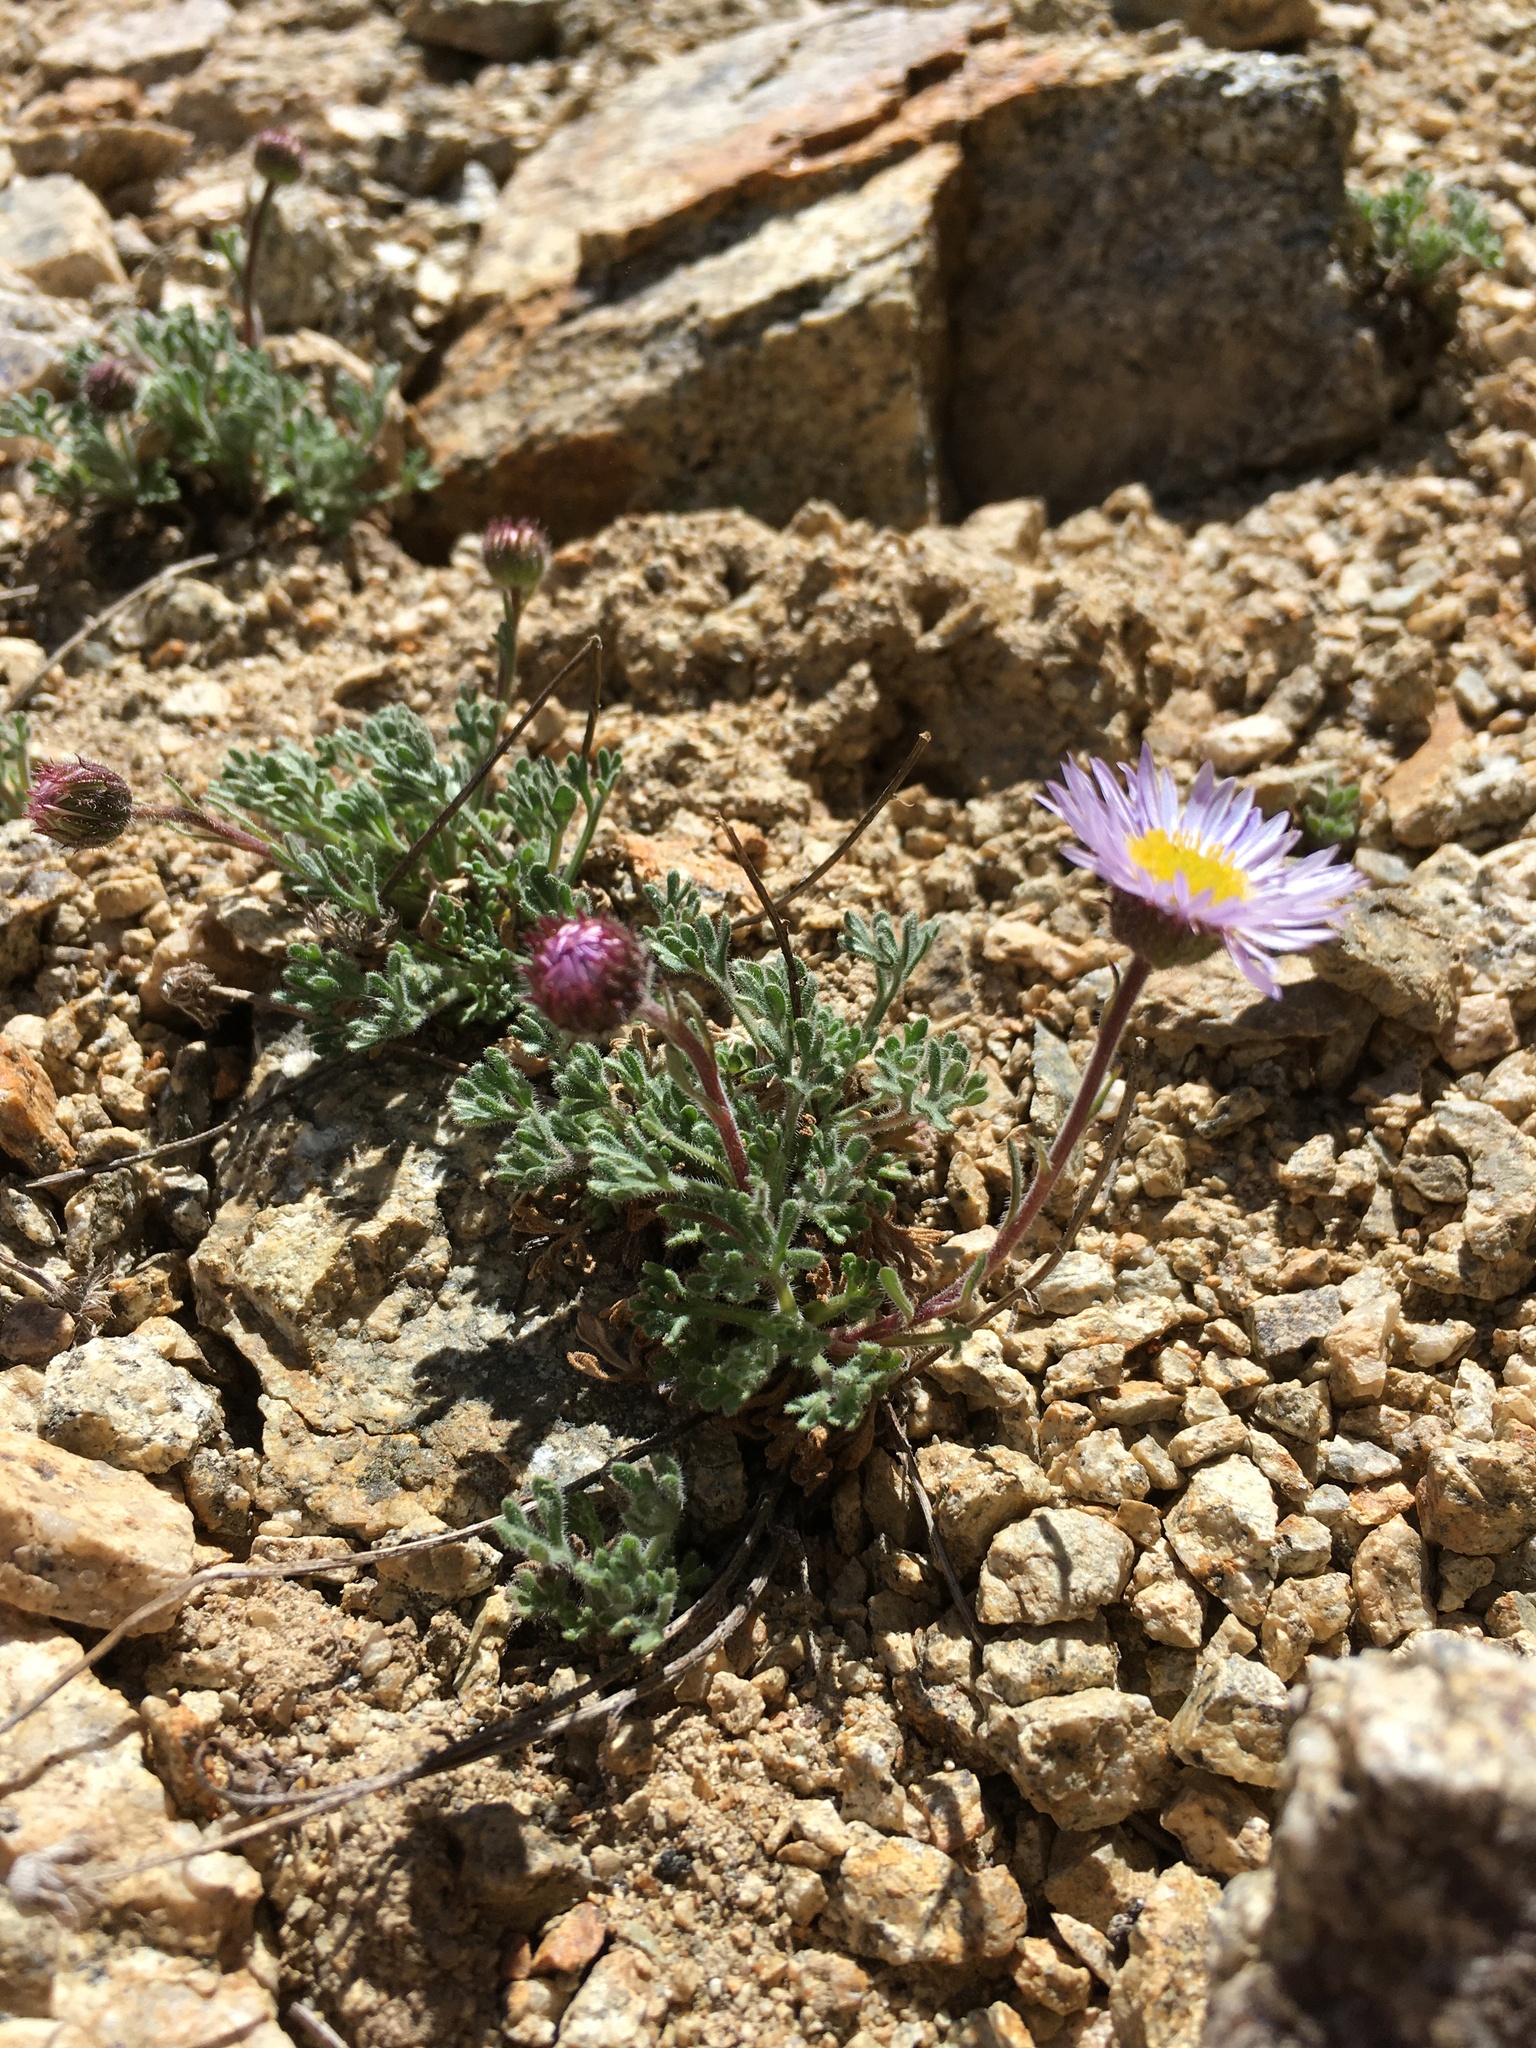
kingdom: Plantae
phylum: Tracheophyta
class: Magnoliopsida
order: Asterales
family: Asteraceae
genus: Erigeron
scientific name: Erigeron compositus
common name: Dwarf mountain fleabane
